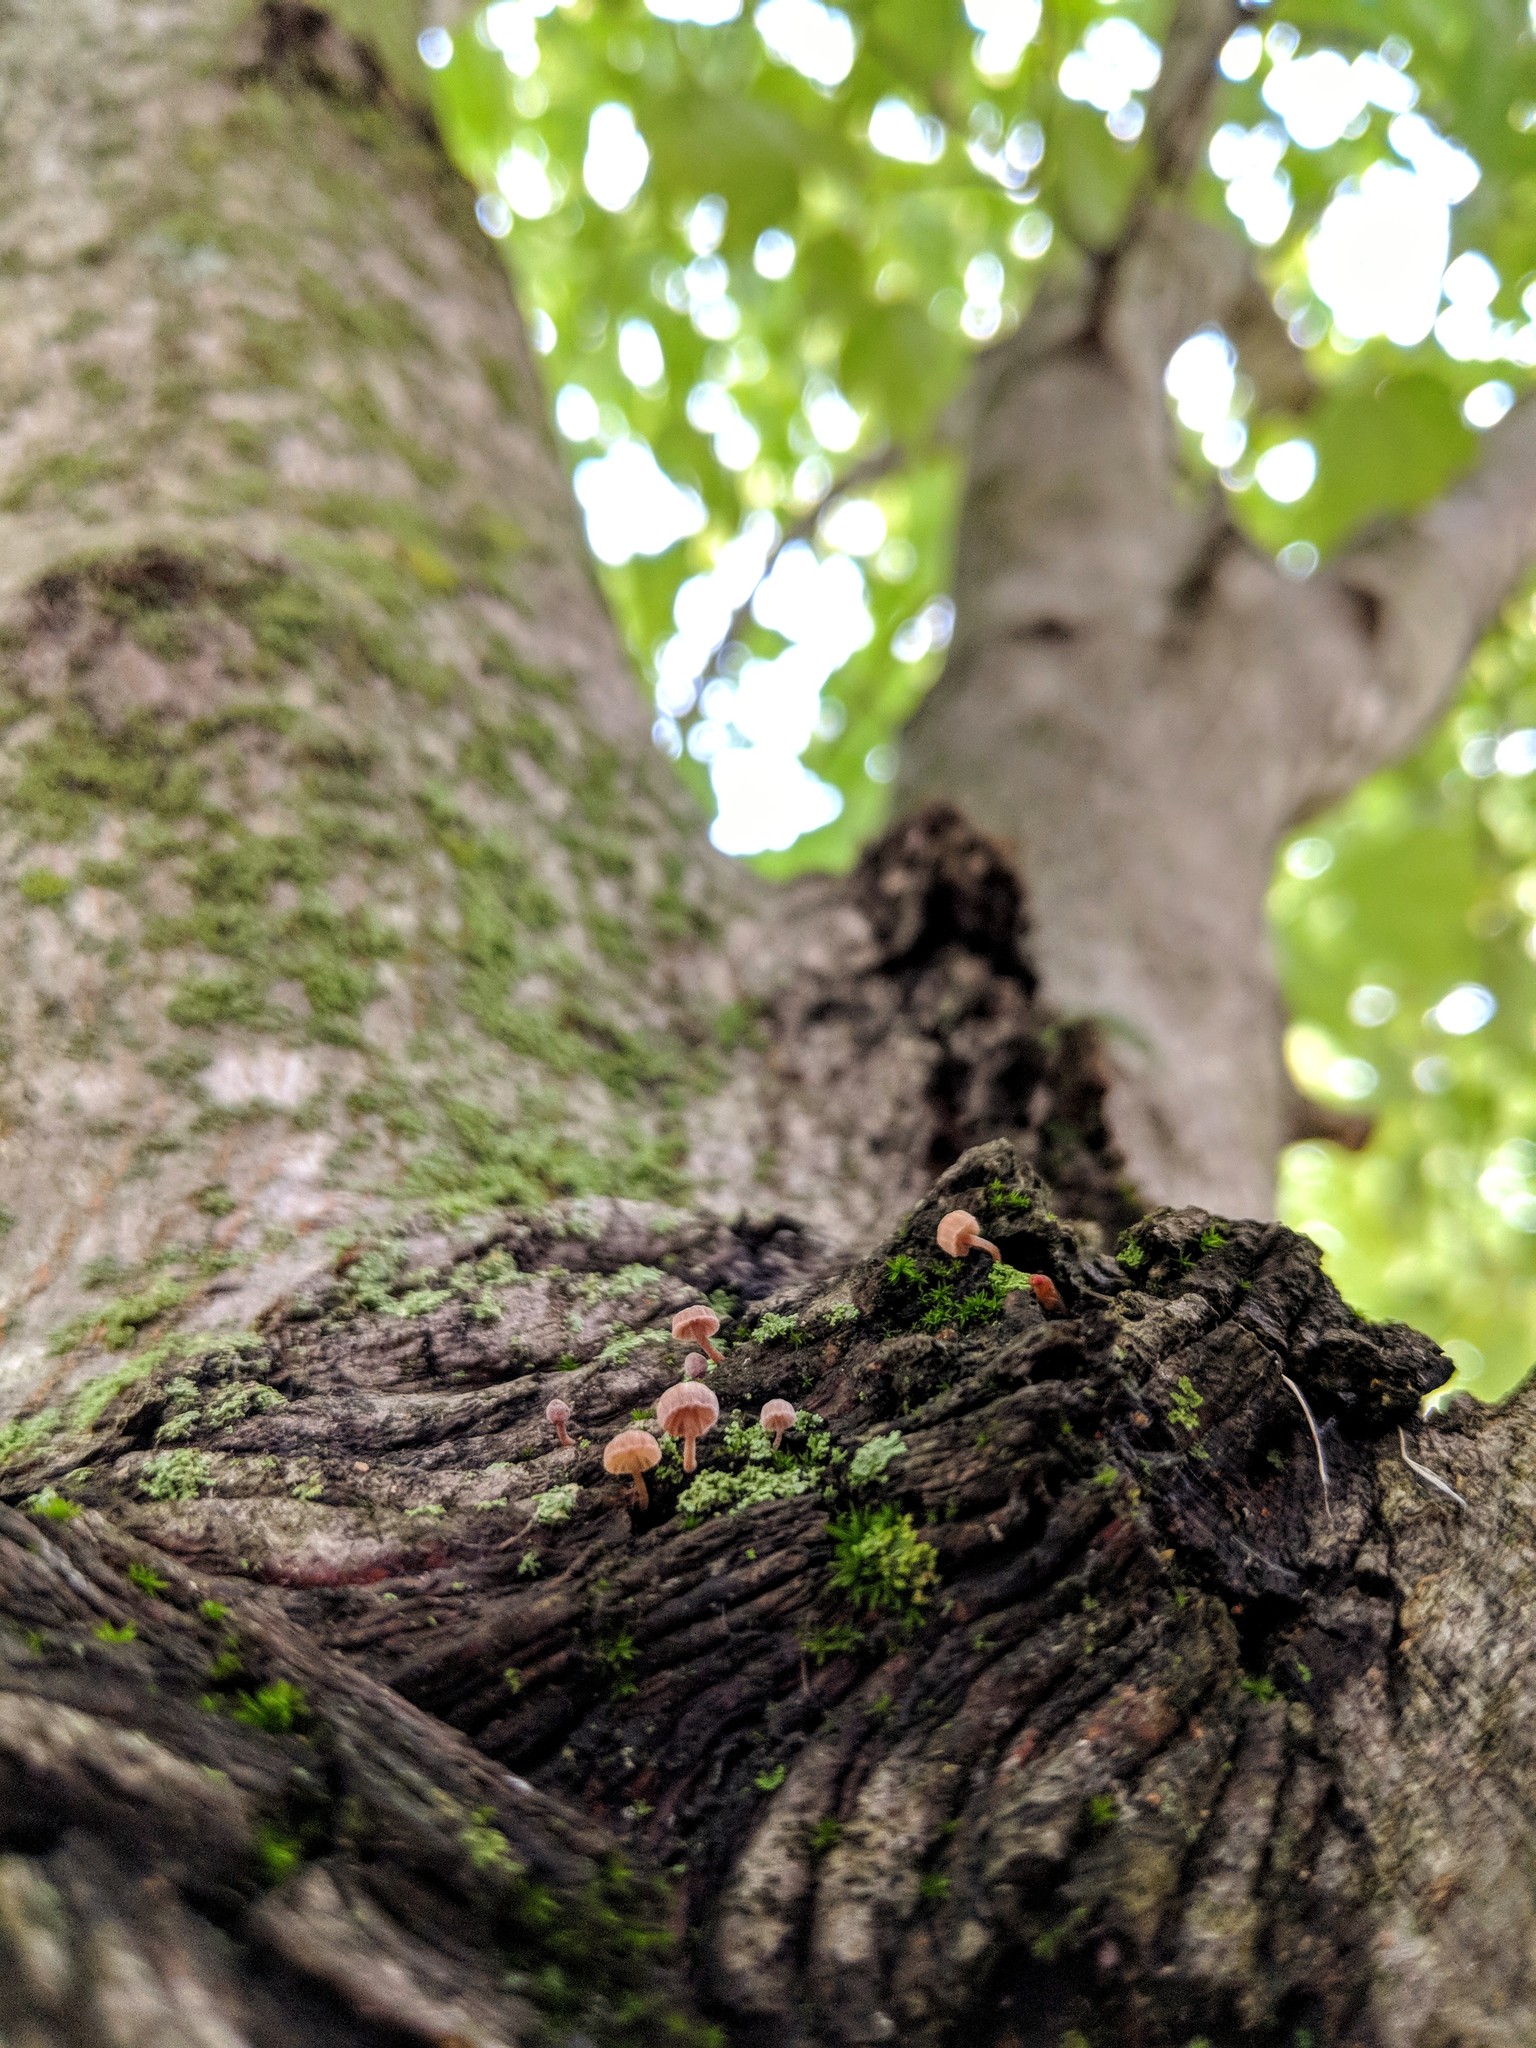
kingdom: Fungi
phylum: Basidiomycota
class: Agaricomycetes
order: Agaricales
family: Mycenaceae
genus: Mycena
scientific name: Mycena corticola
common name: Bark mycena
